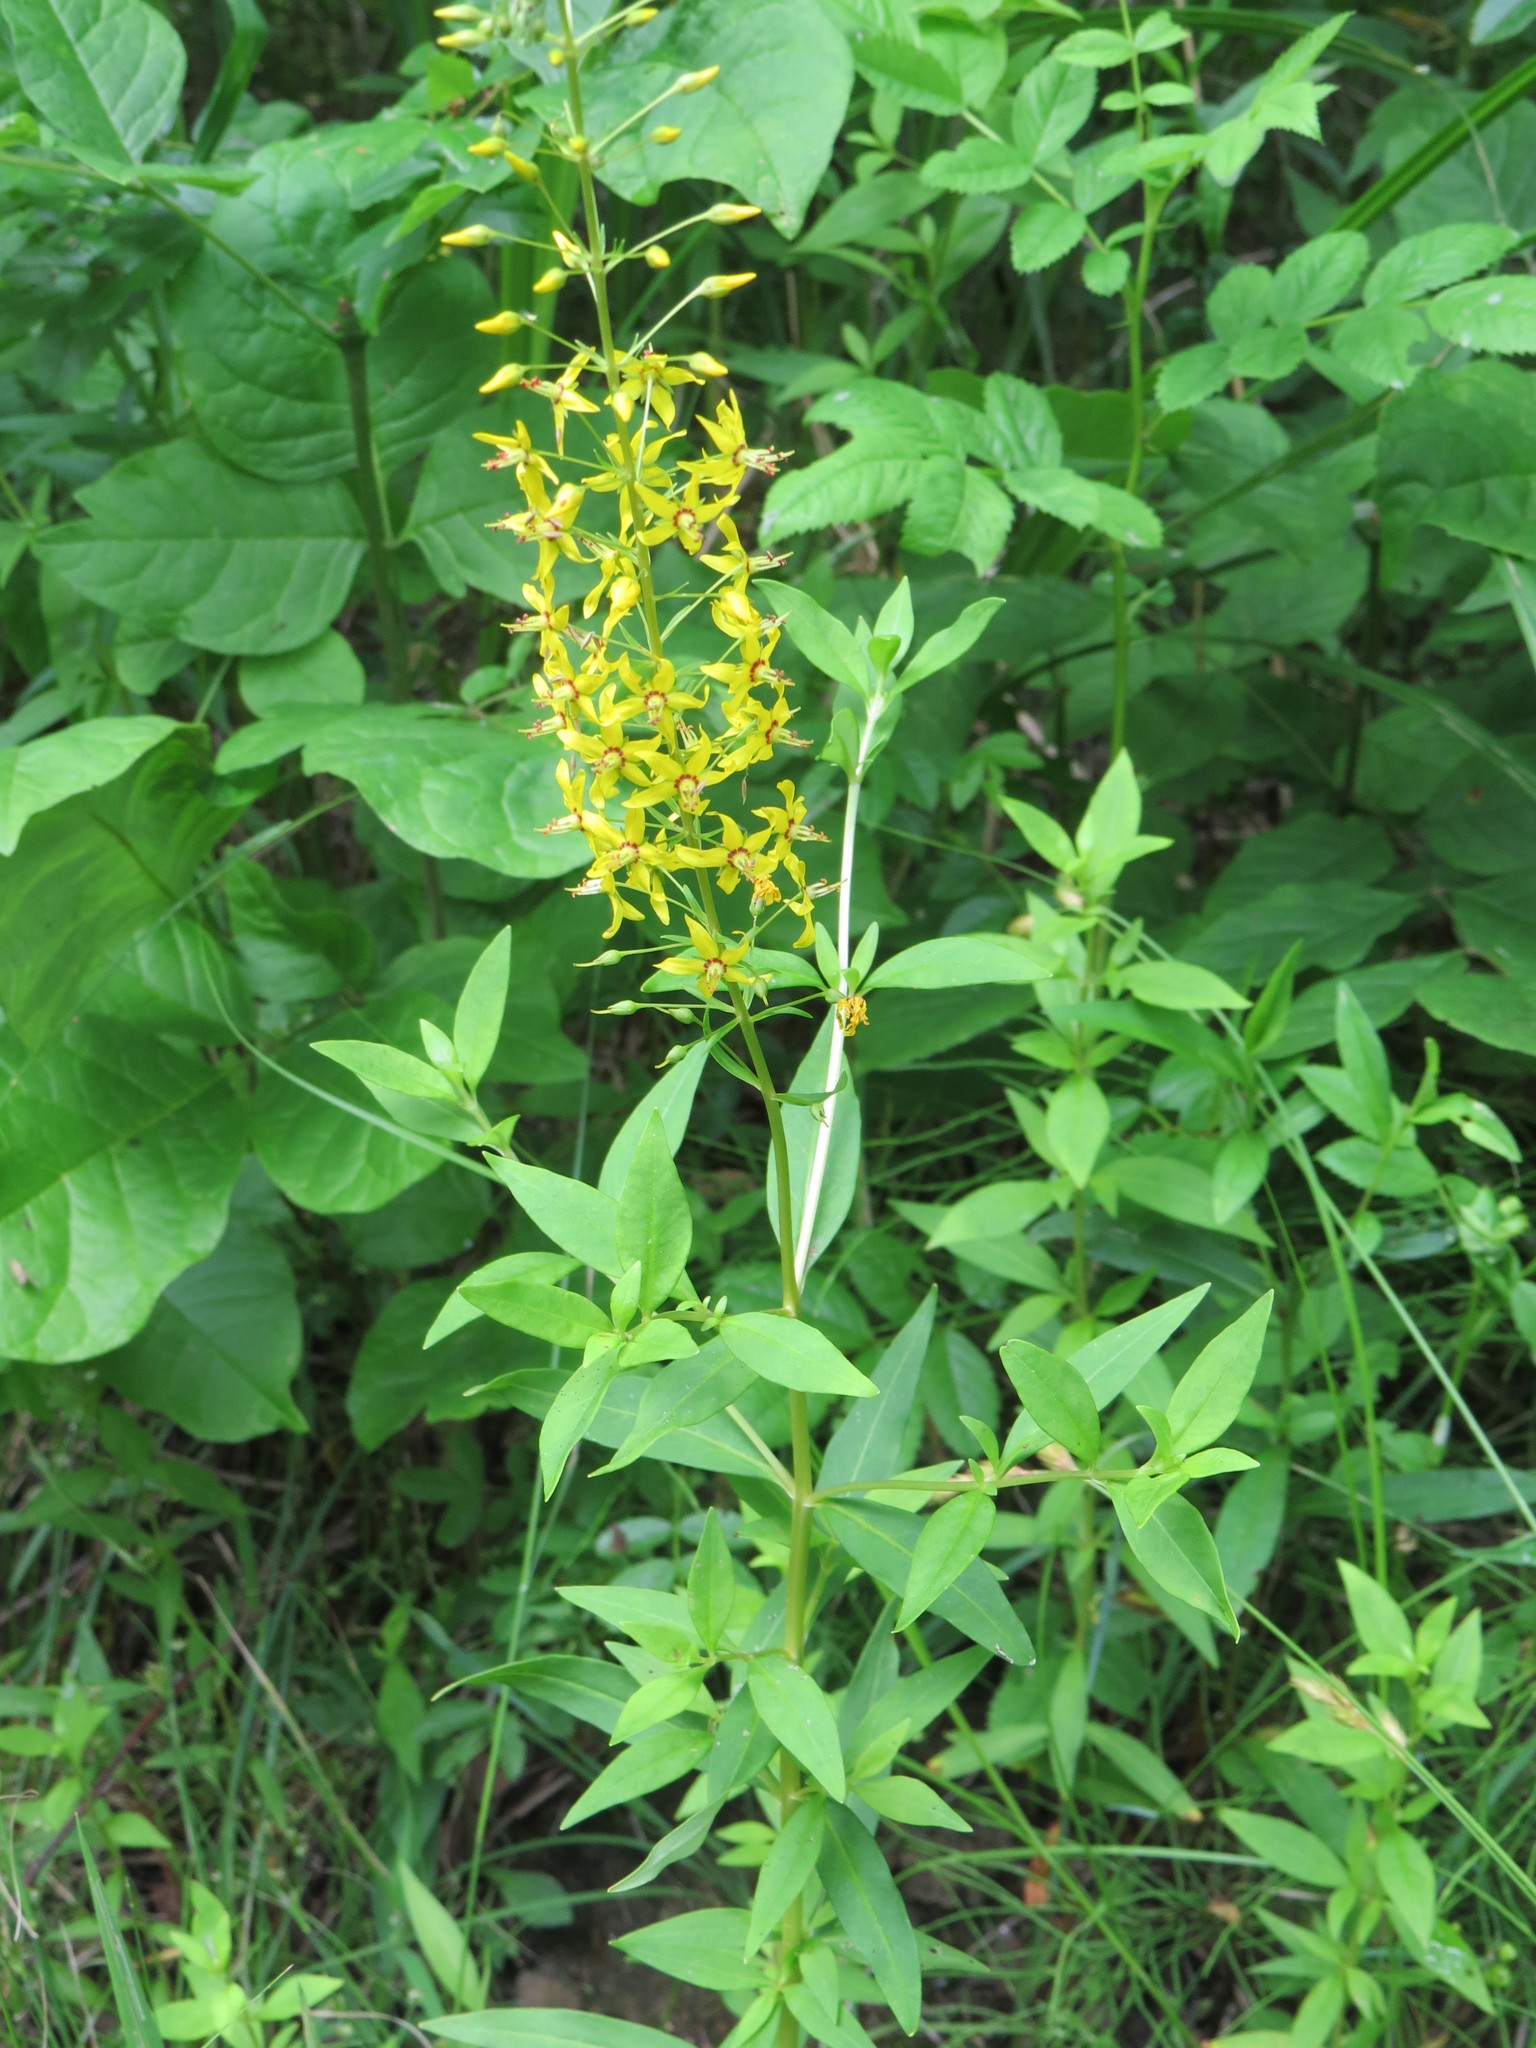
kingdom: Plantae
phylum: Tracheophyta
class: Magnoliopsida
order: Ericales
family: Primulaceae
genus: Lysimachia
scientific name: Lysimachia terrestris
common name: Lake loosestrife
